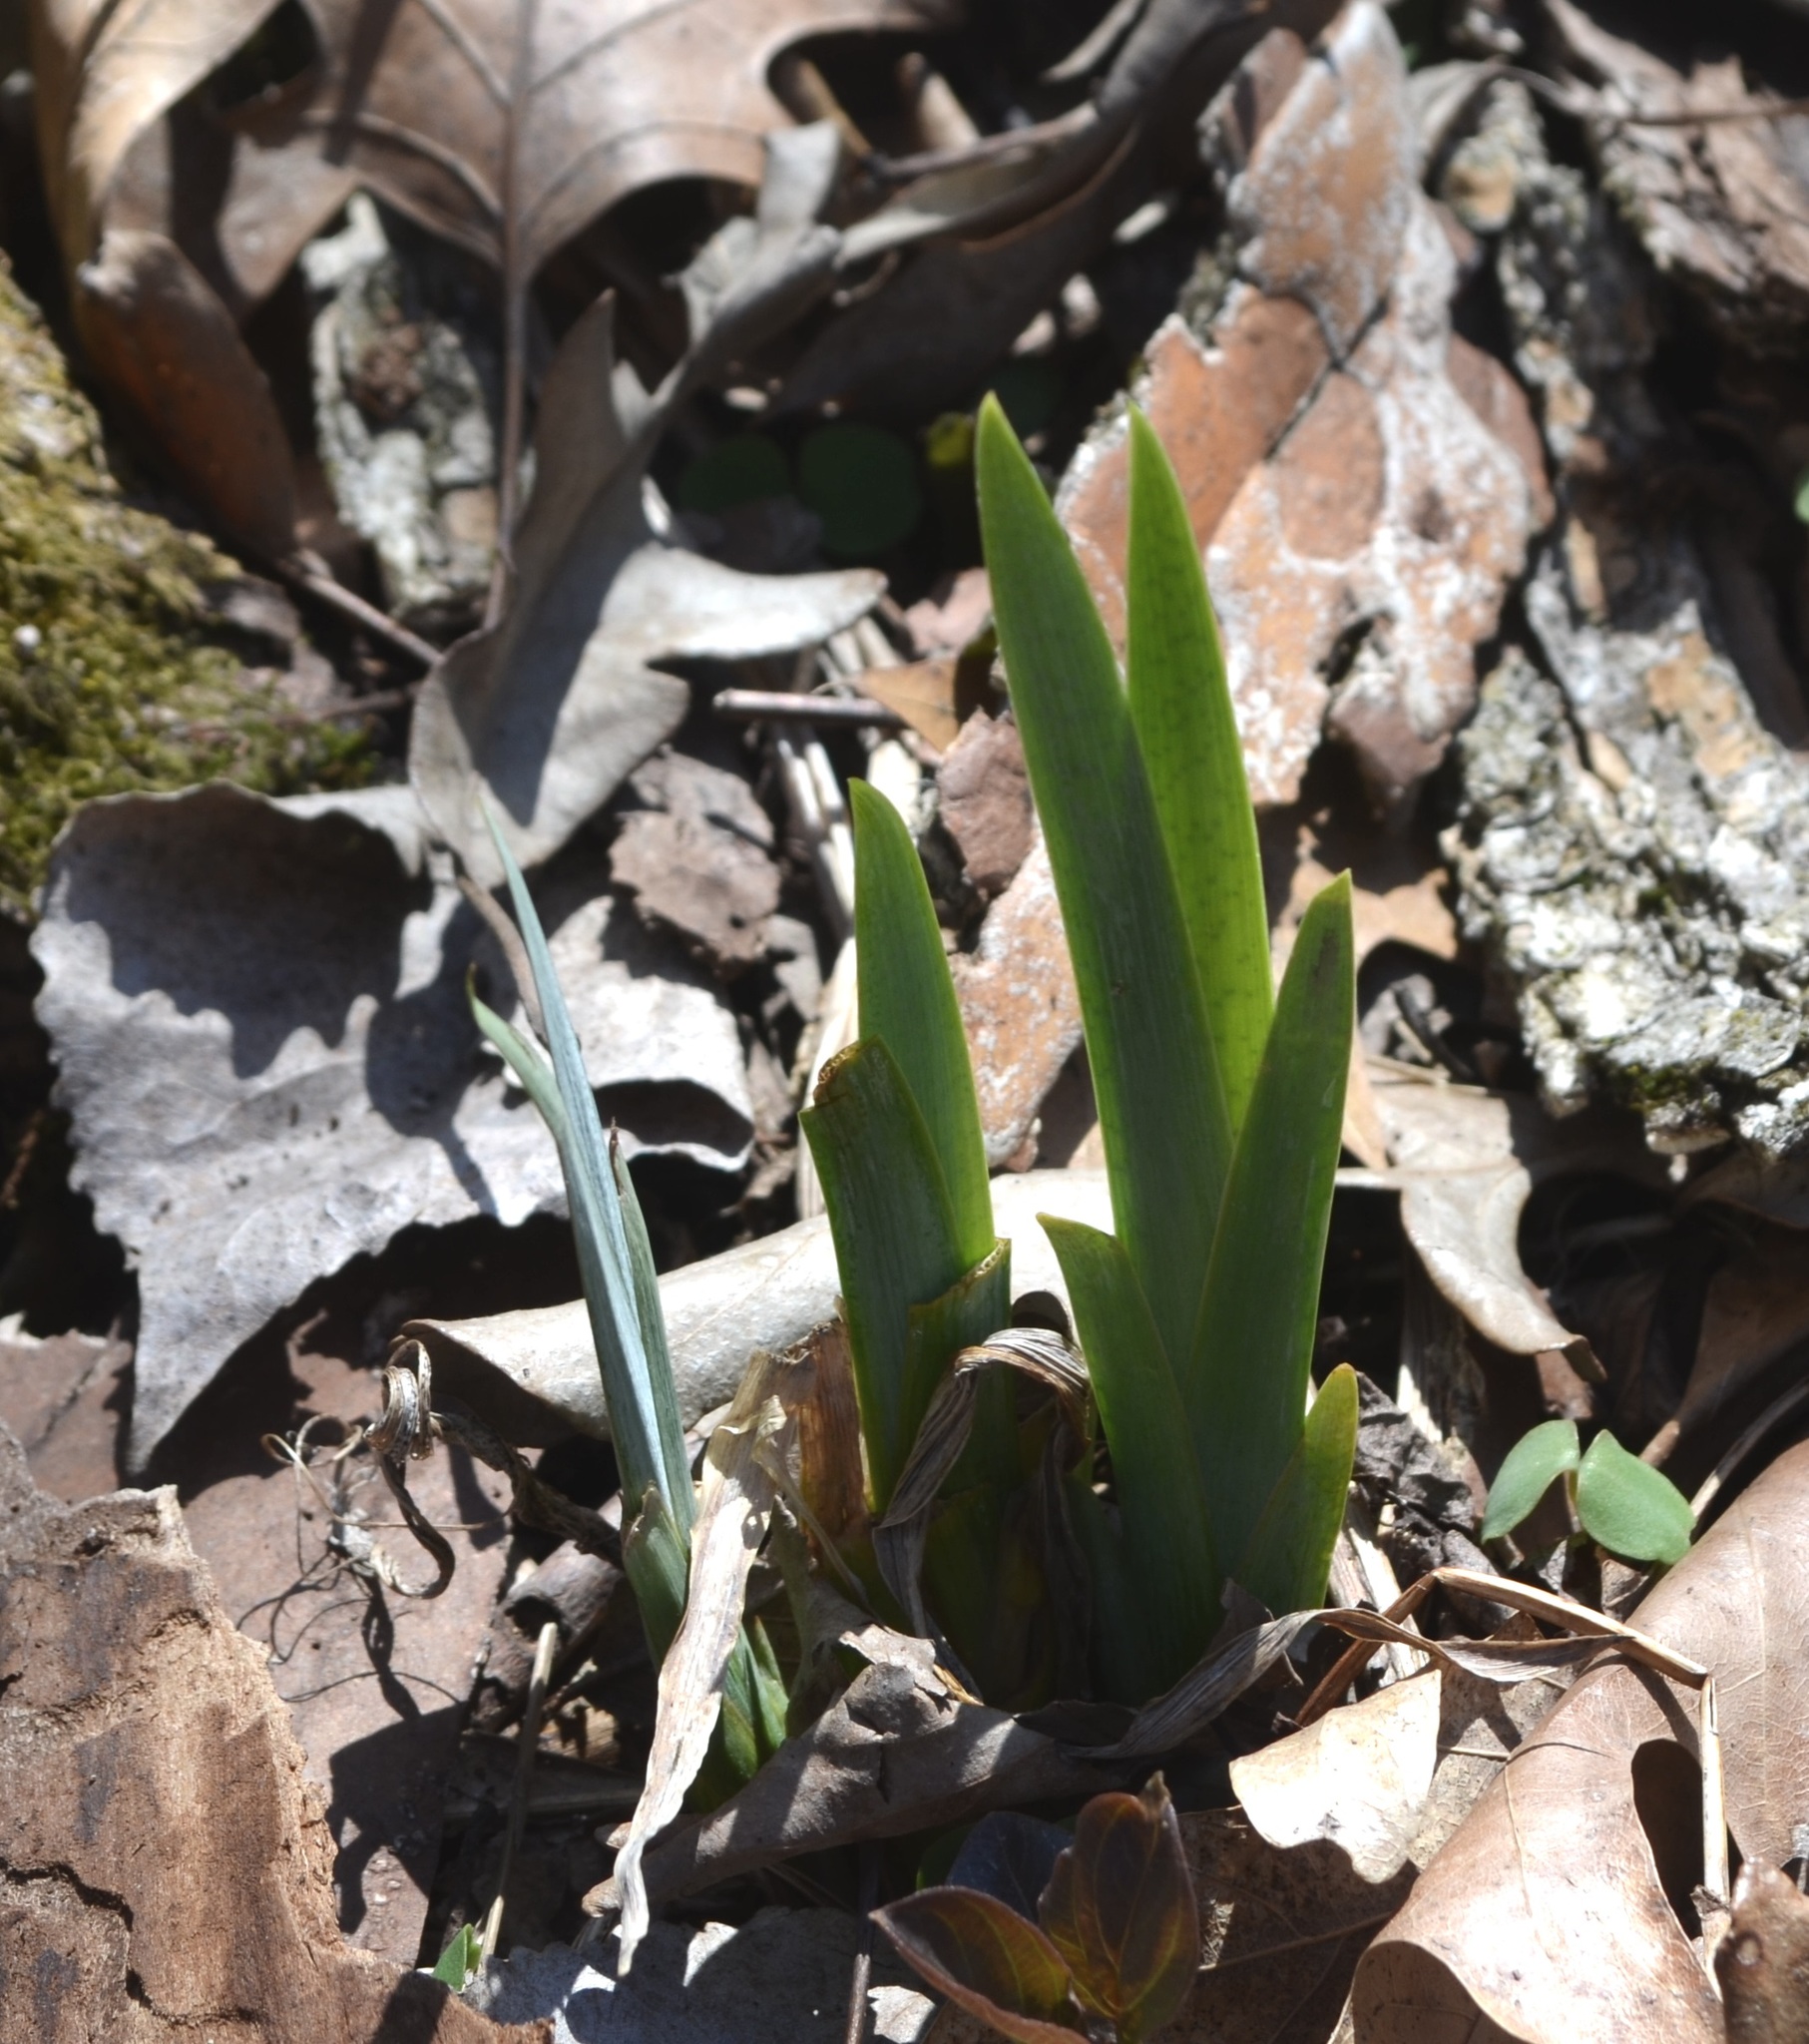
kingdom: Plantae
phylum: Tracheophyta
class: Liliopsida
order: Asparagales
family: Iridaceae
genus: Iris
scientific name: Iris virginica
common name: Southern blue flag
